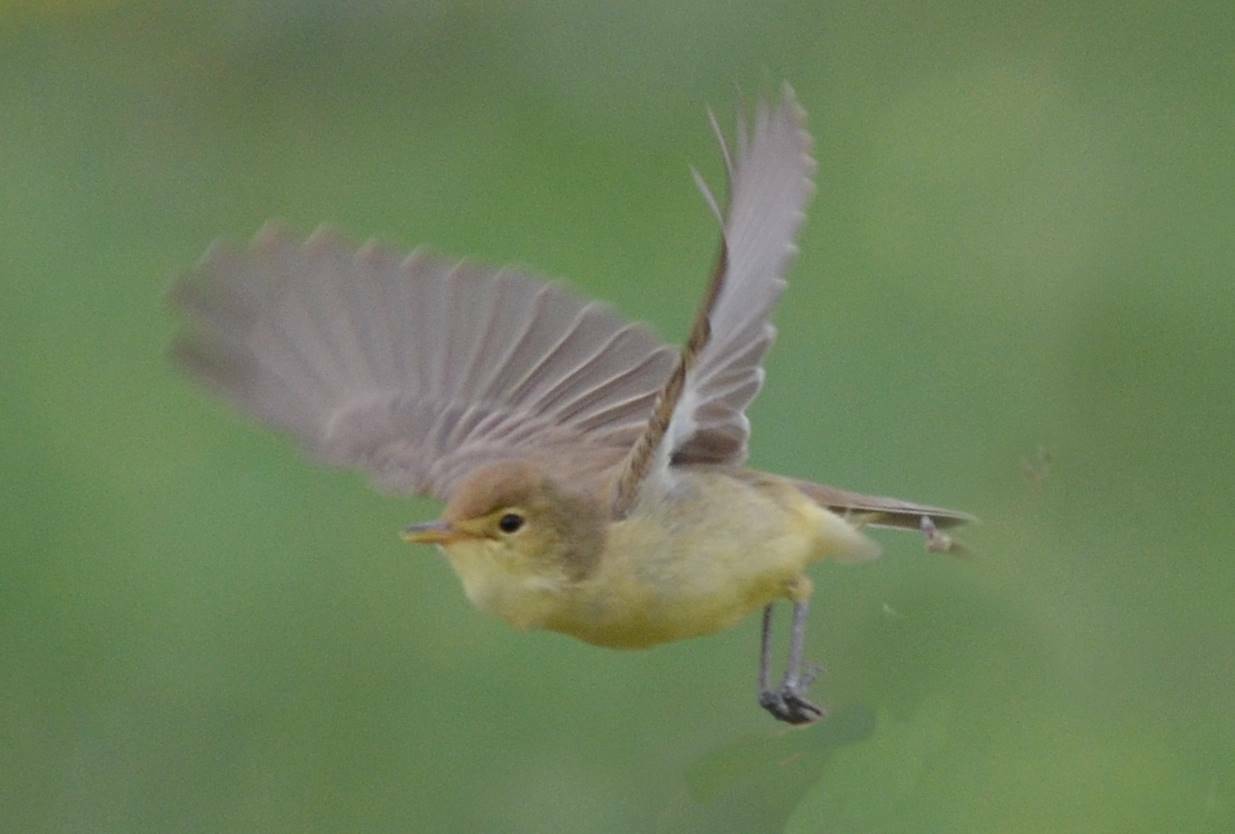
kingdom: Animalia
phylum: Chordata
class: Aves
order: Passeriformes
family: Acrocephalidae
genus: Hippolais
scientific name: Hippolais polyglotta
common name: Melodious warbler
